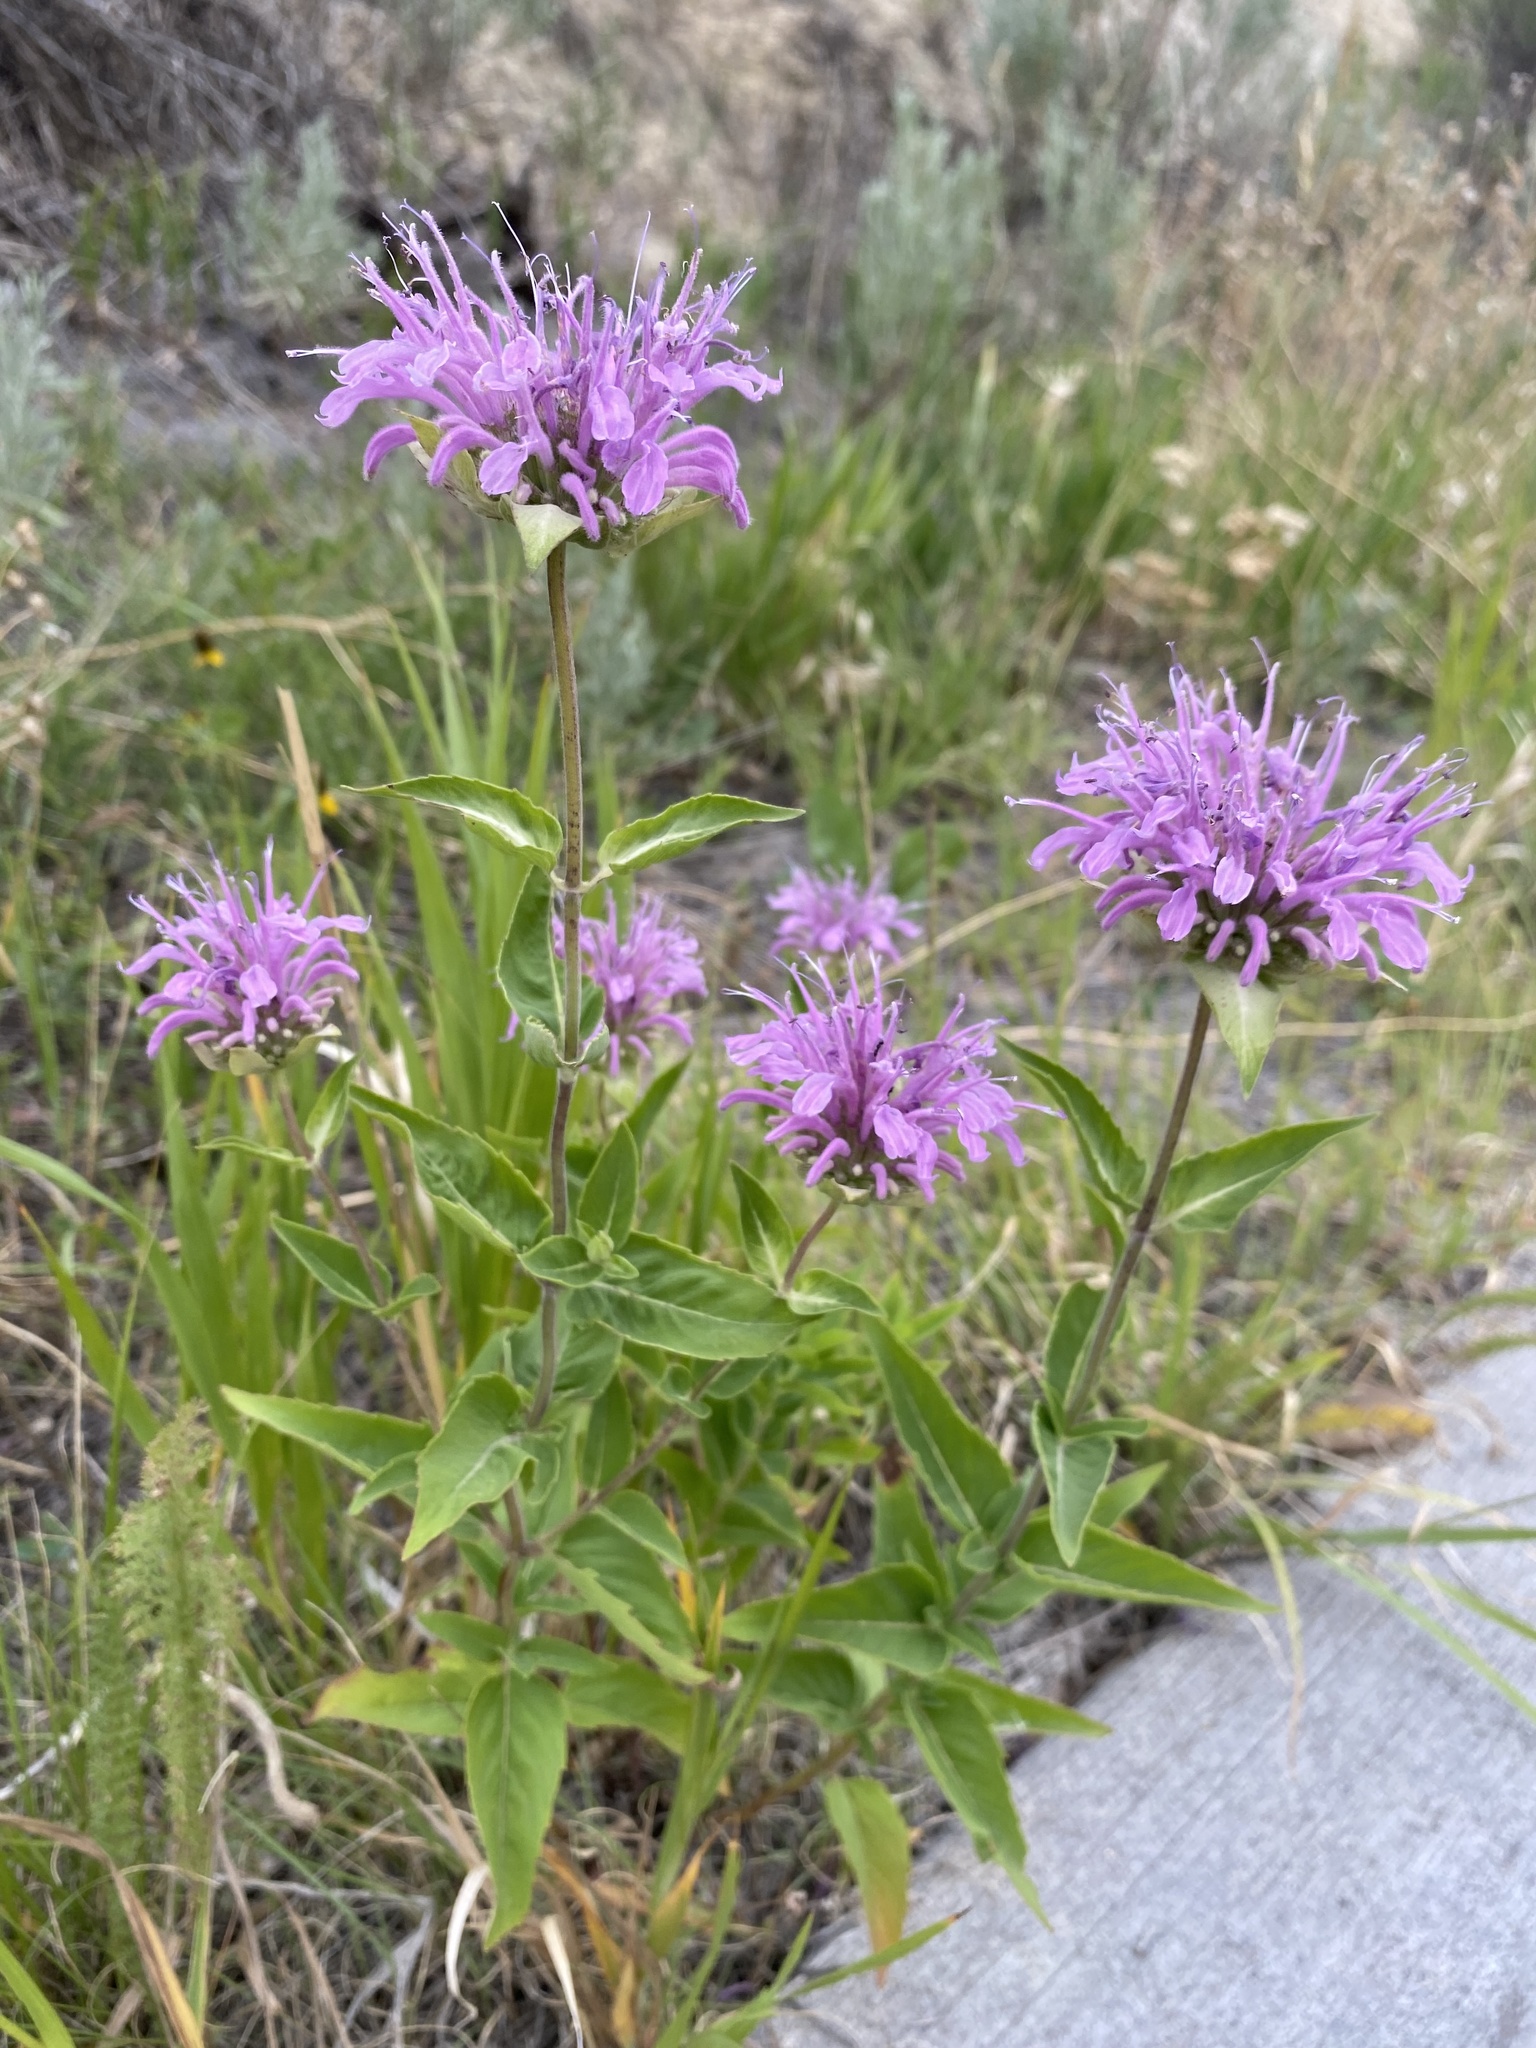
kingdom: Plantae
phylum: Tracheophyta
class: Magnoliopsida
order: Lamiales
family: Lamiaceae
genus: Monarda
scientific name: Monarda fistulosa
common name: Purple beebalm
